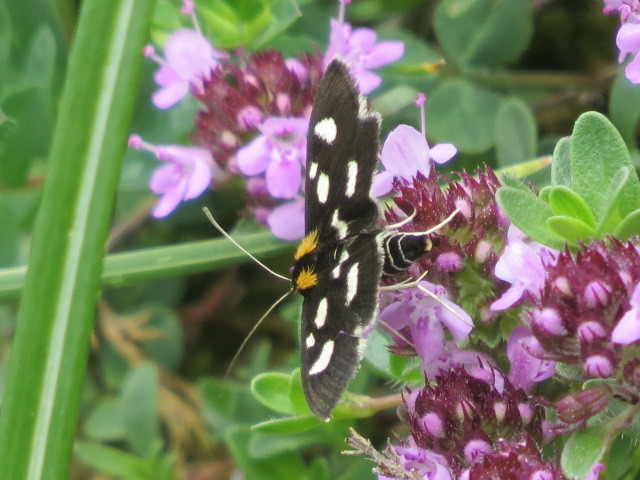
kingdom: Animalia
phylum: Arthropoda
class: Insecta
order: Lepidoptera
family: Crambidae
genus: Anania
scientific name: Anania funebris
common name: White-spotted sable moth
